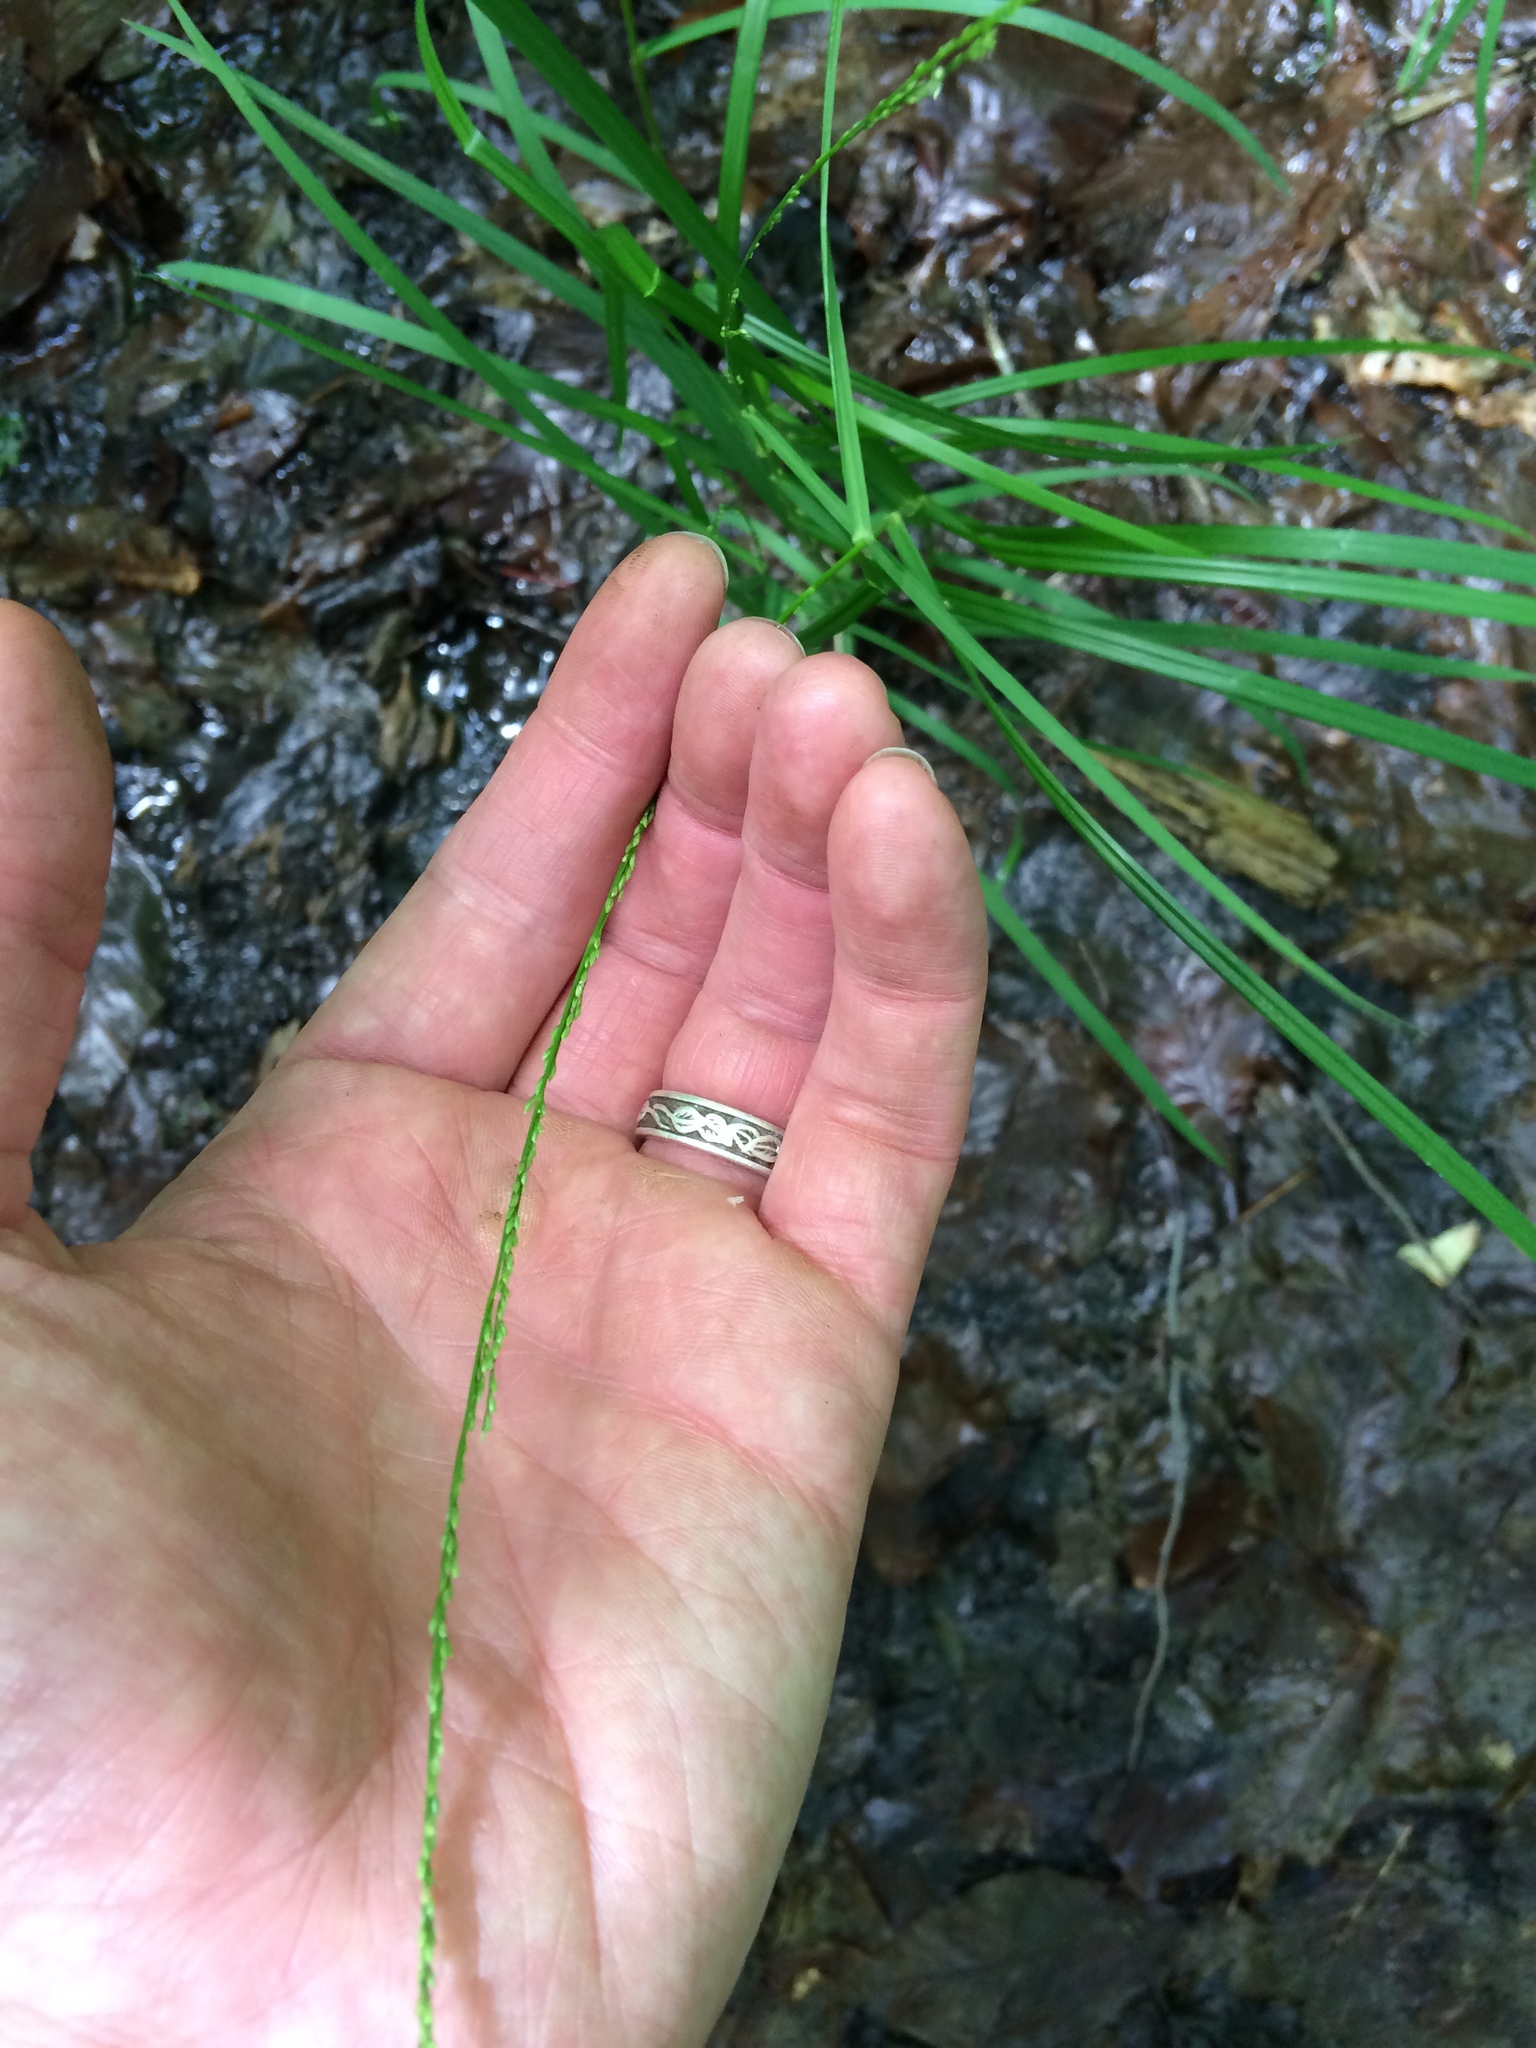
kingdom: Plantae
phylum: Tracheophyta
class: Liliopsida
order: Poales
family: Poaceae
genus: Glyceria
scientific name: Glyceria melicaria
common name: Long mannagrass
